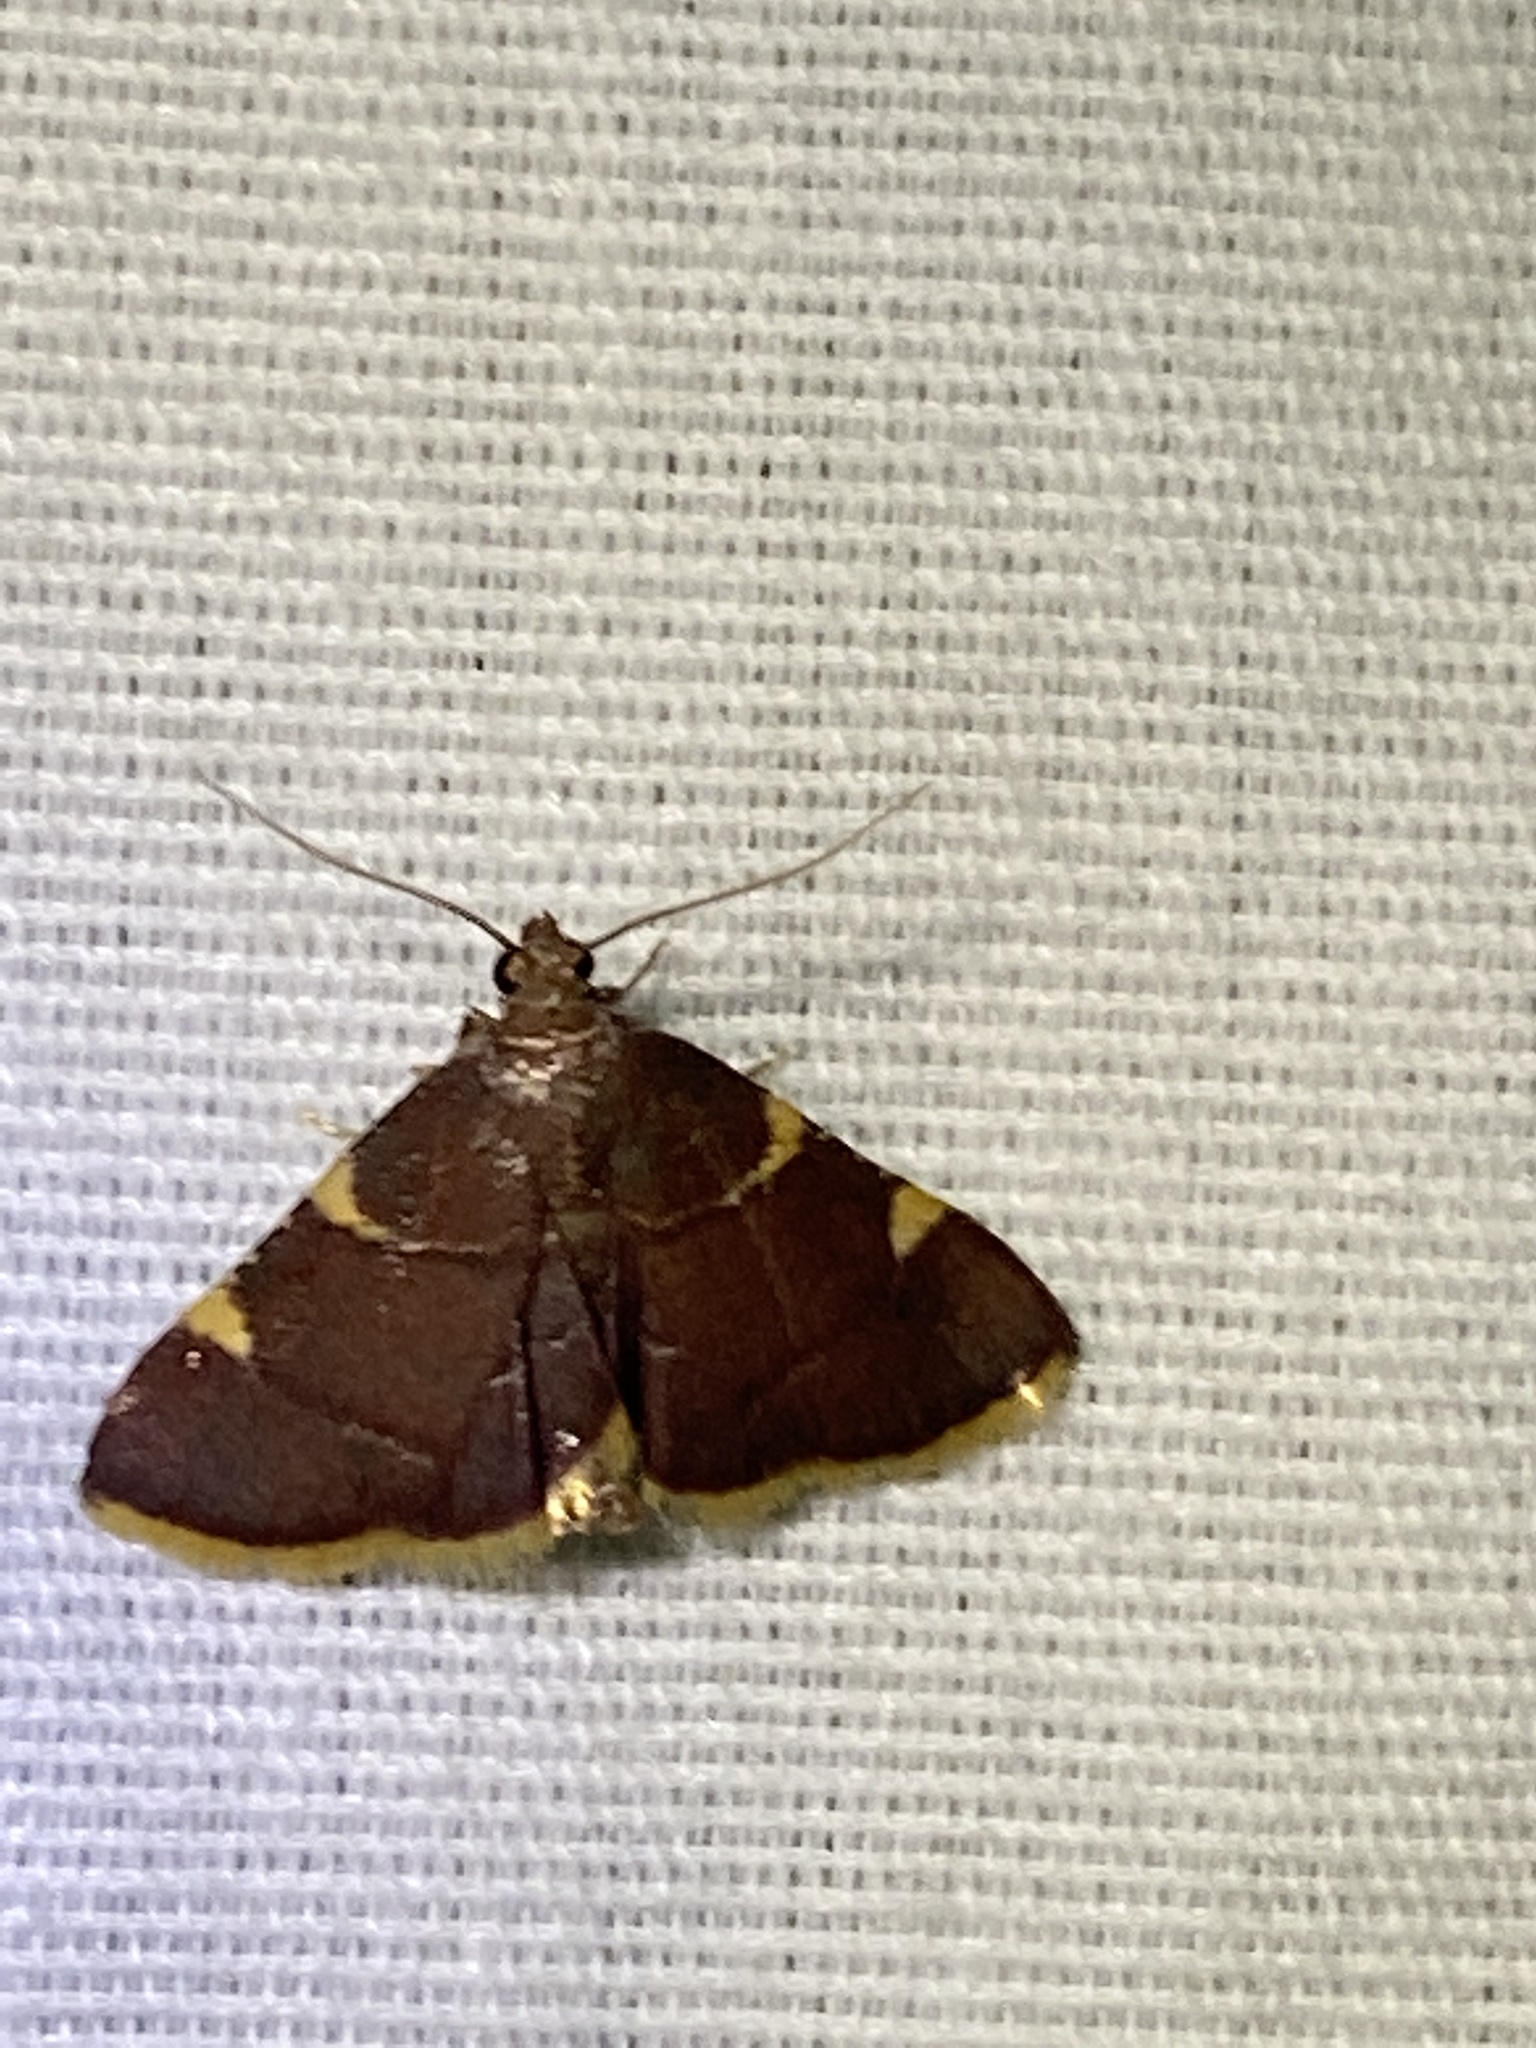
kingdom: Animalia
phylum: Arthropoda
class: Insecta
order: Lepidoptera
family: Pyralidae
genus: Hypsopygia
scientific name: Hypsopygia olinalis
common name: Yellow-fringed dolichomia moth
